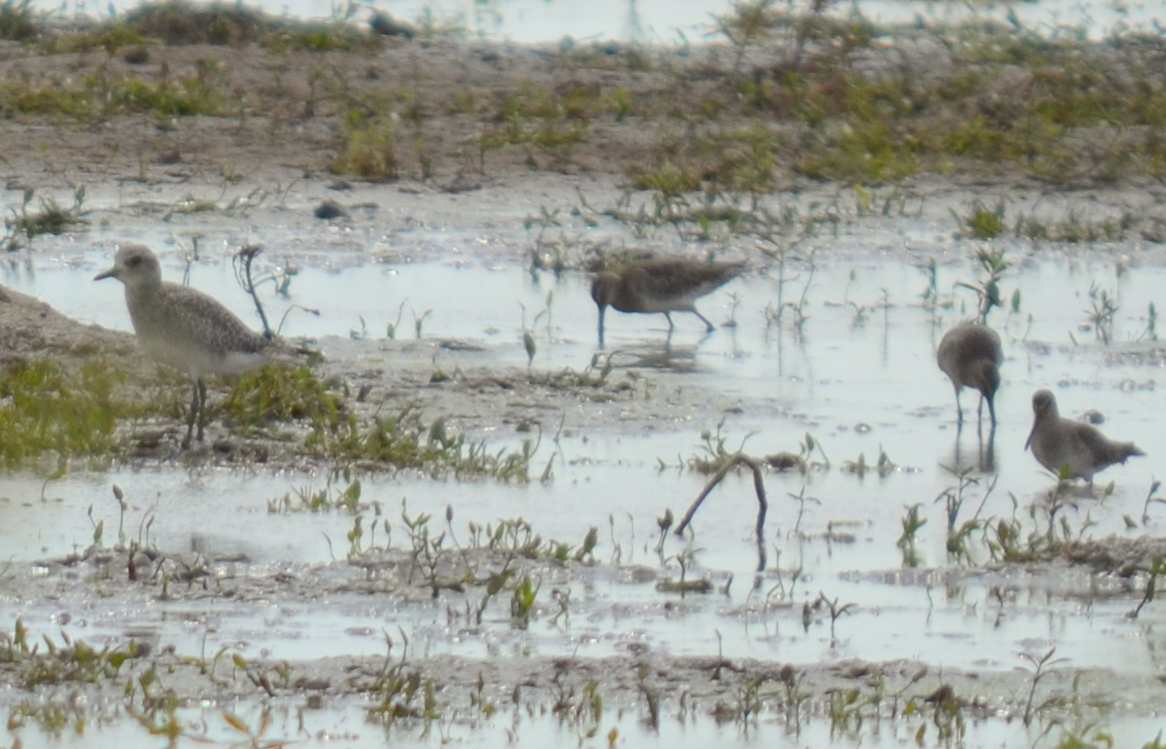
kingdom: Animalia
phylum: Chordata
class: Aves
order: Charadriiformes
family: Charadriidae
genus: Pluvialis
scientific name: Pluvialis squatarola
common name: Grey plover
